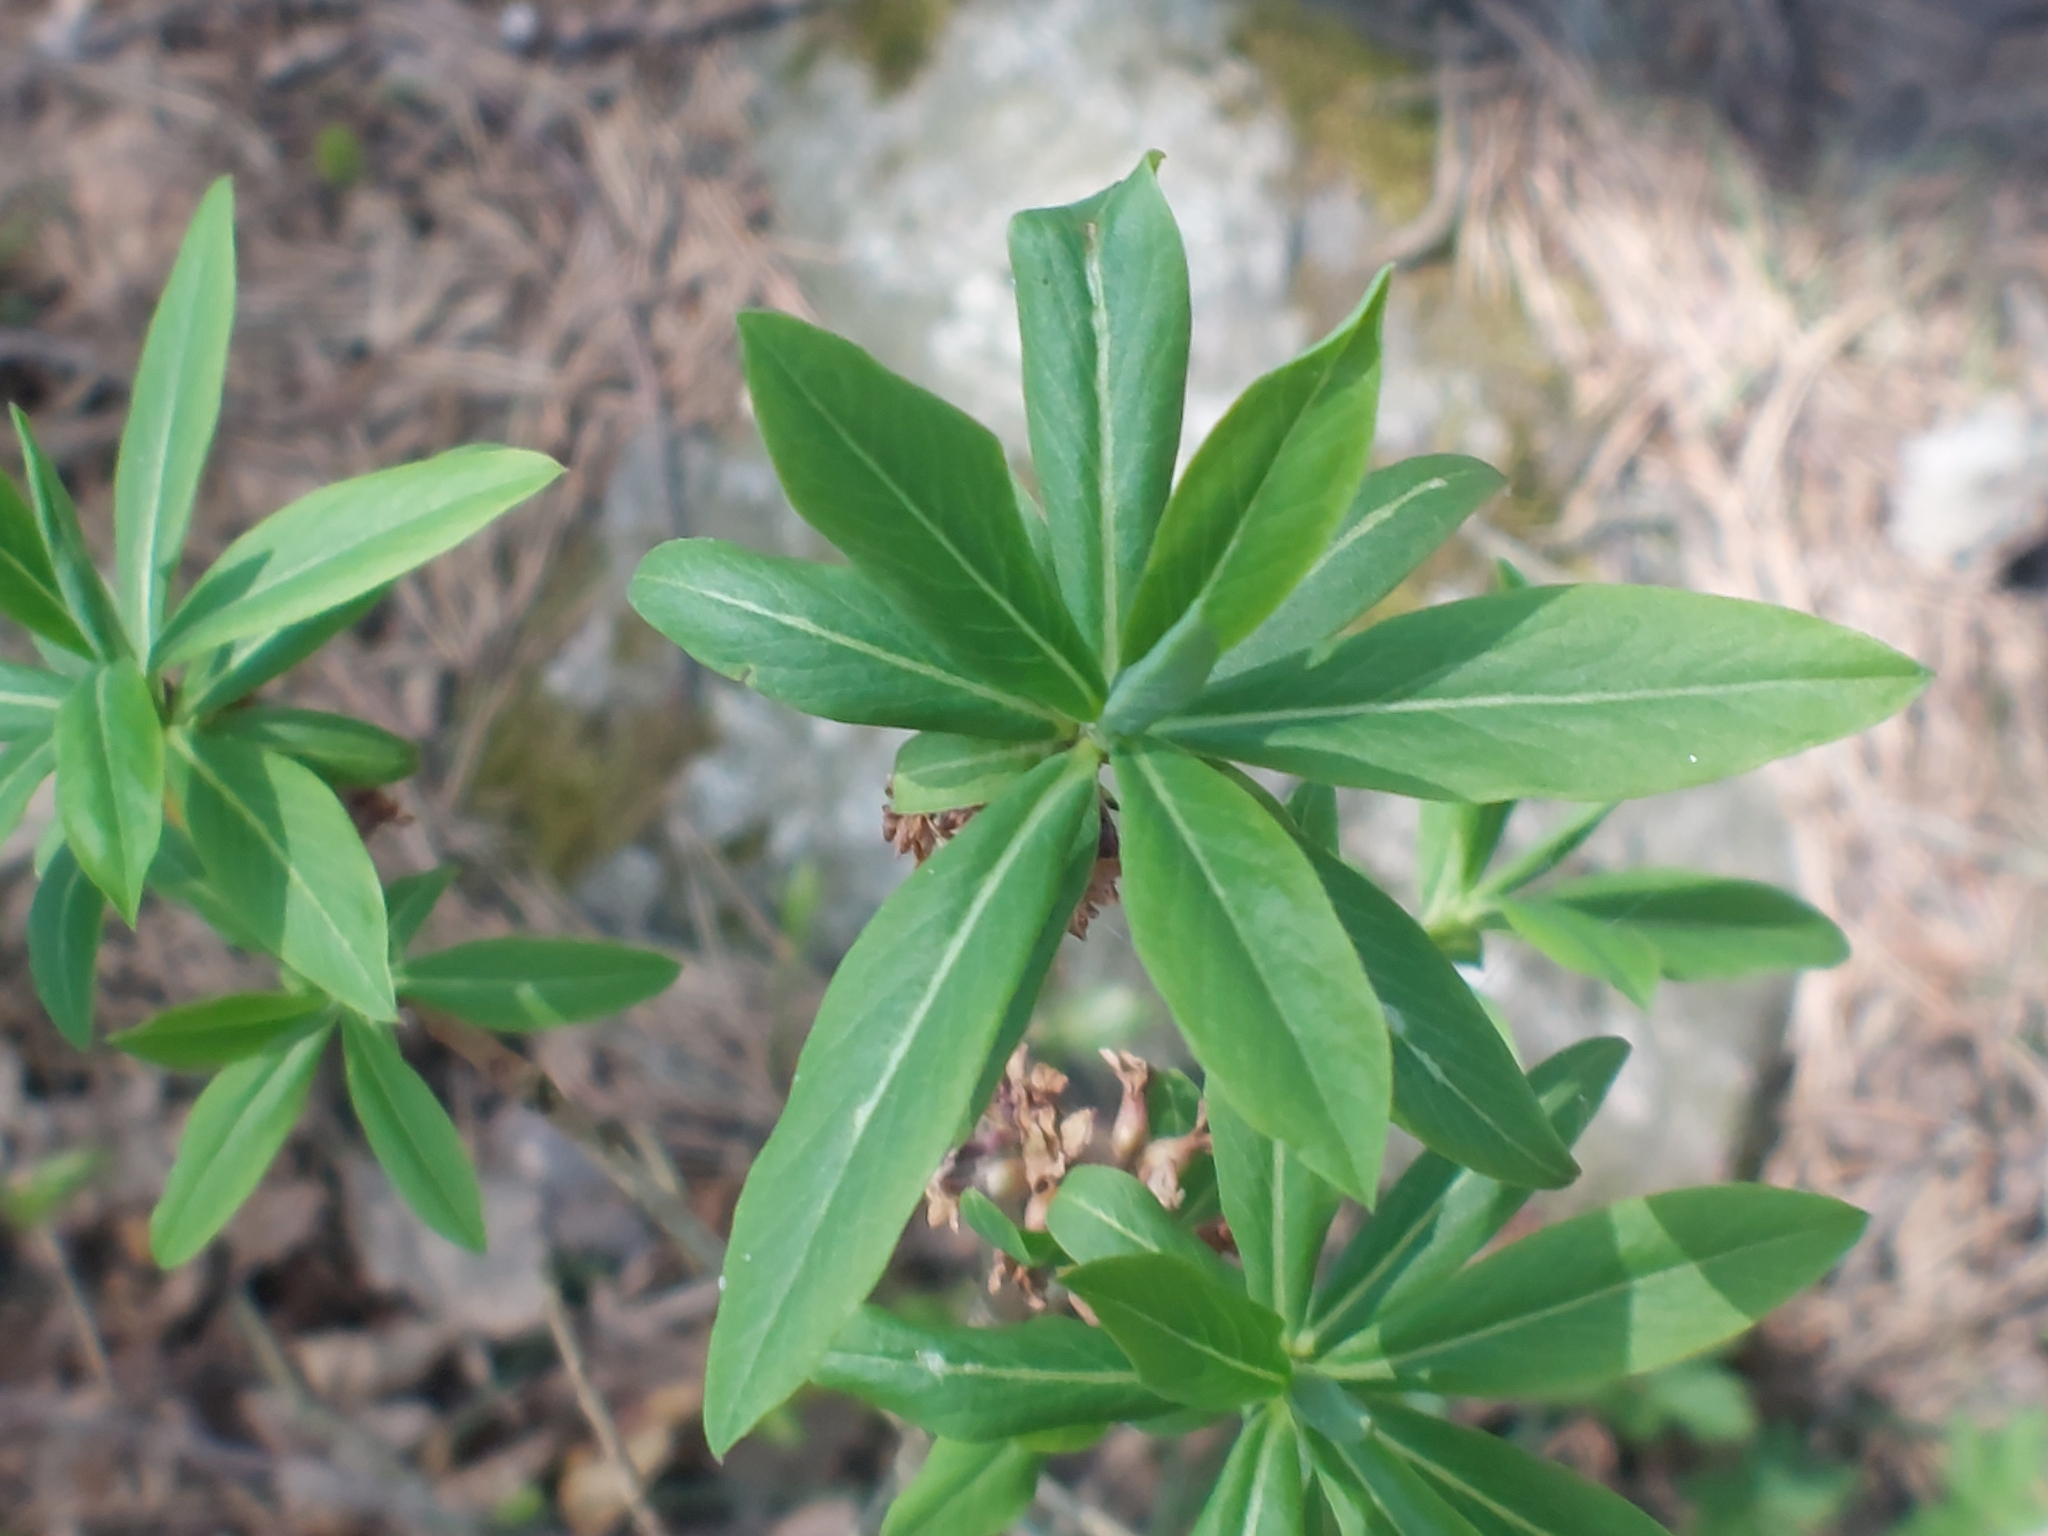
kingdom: Plantae
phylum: Tracheophyta
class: Magnoliopsida
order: Malvales
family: Thymelaeaceae
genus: Daphne
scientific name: Daphne mezereum
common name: Mezereon
